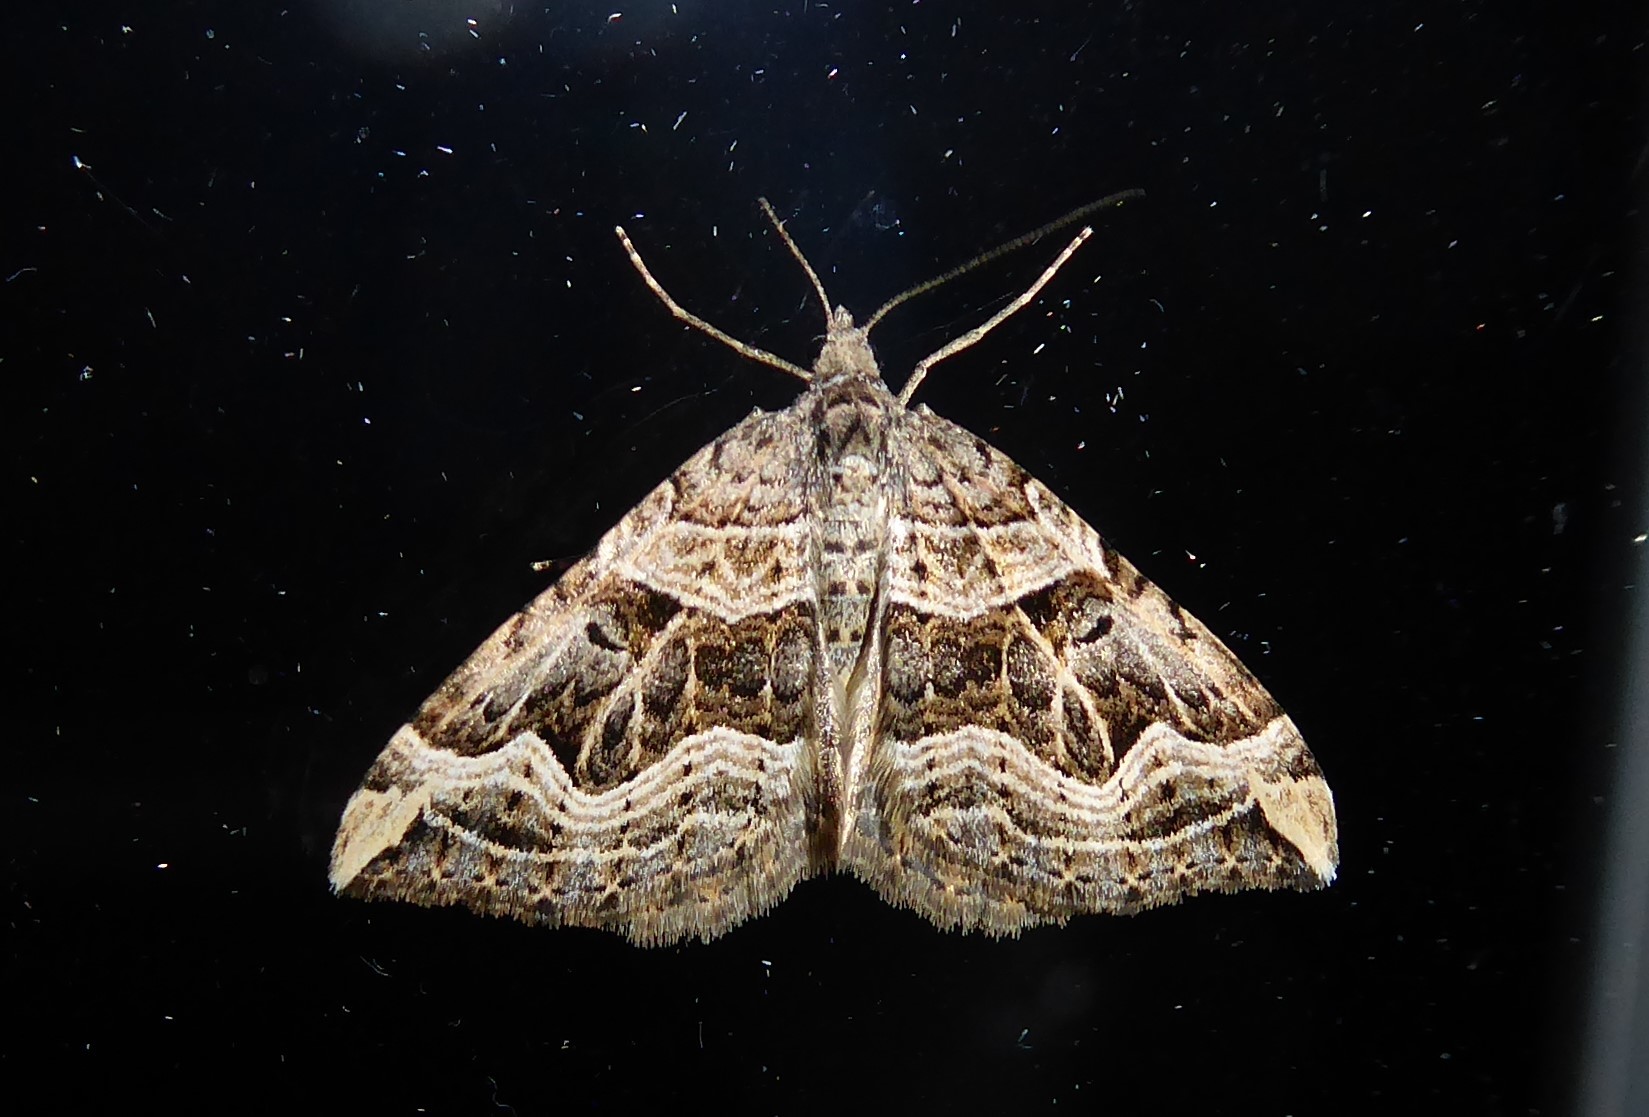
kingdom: Animalia
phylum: Arthropoda
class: Insecta
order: Lepidoptera
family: Geometridae
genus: Xanthorhoe
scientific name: Xanthorhoe semifissata
